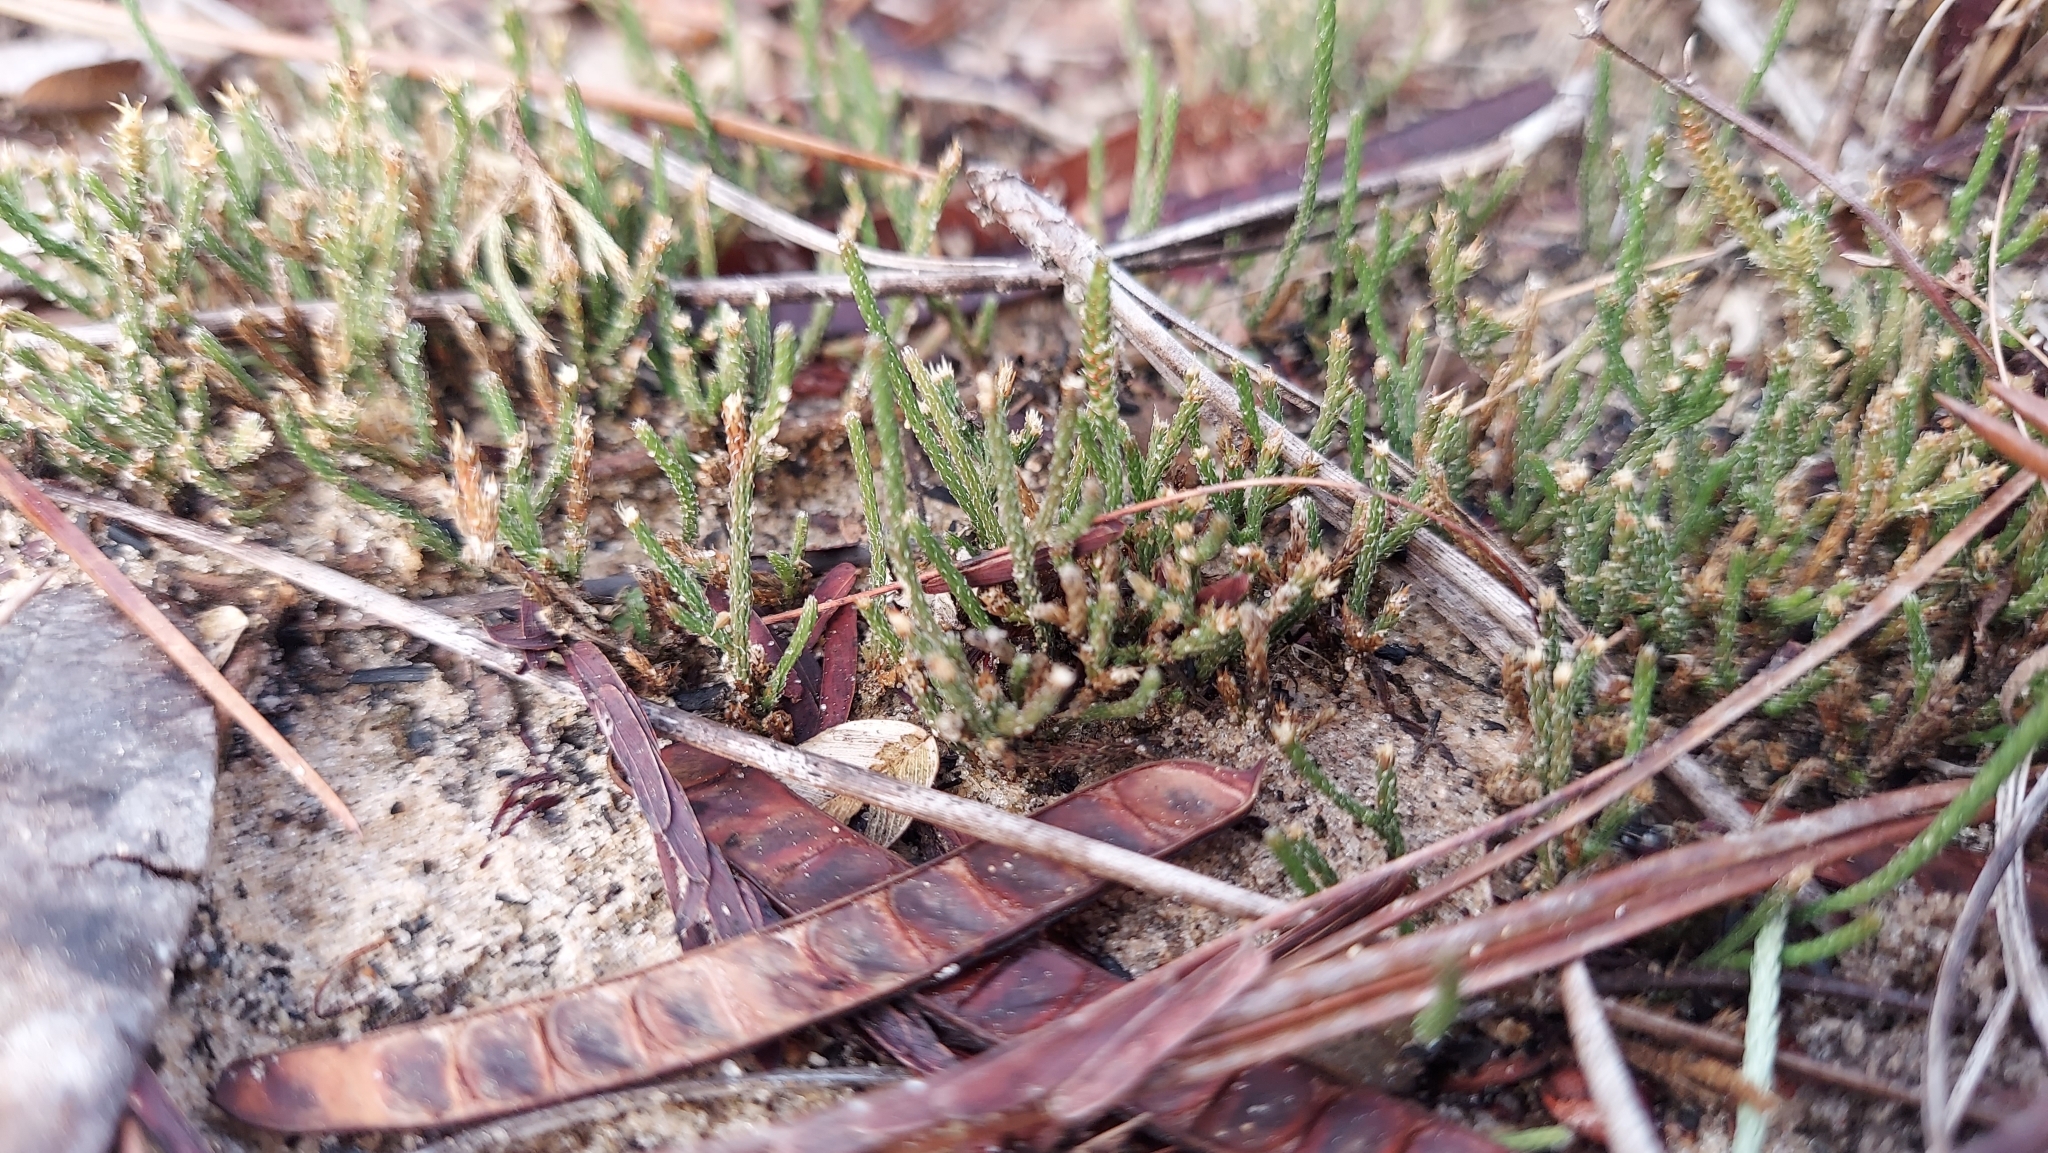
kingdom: Plantae
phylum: Tracheophyta
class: Lycopodiopsida
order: Selaginellales
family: Selaginellaceae
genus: Selaginella
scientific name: Selaginella arenicola
